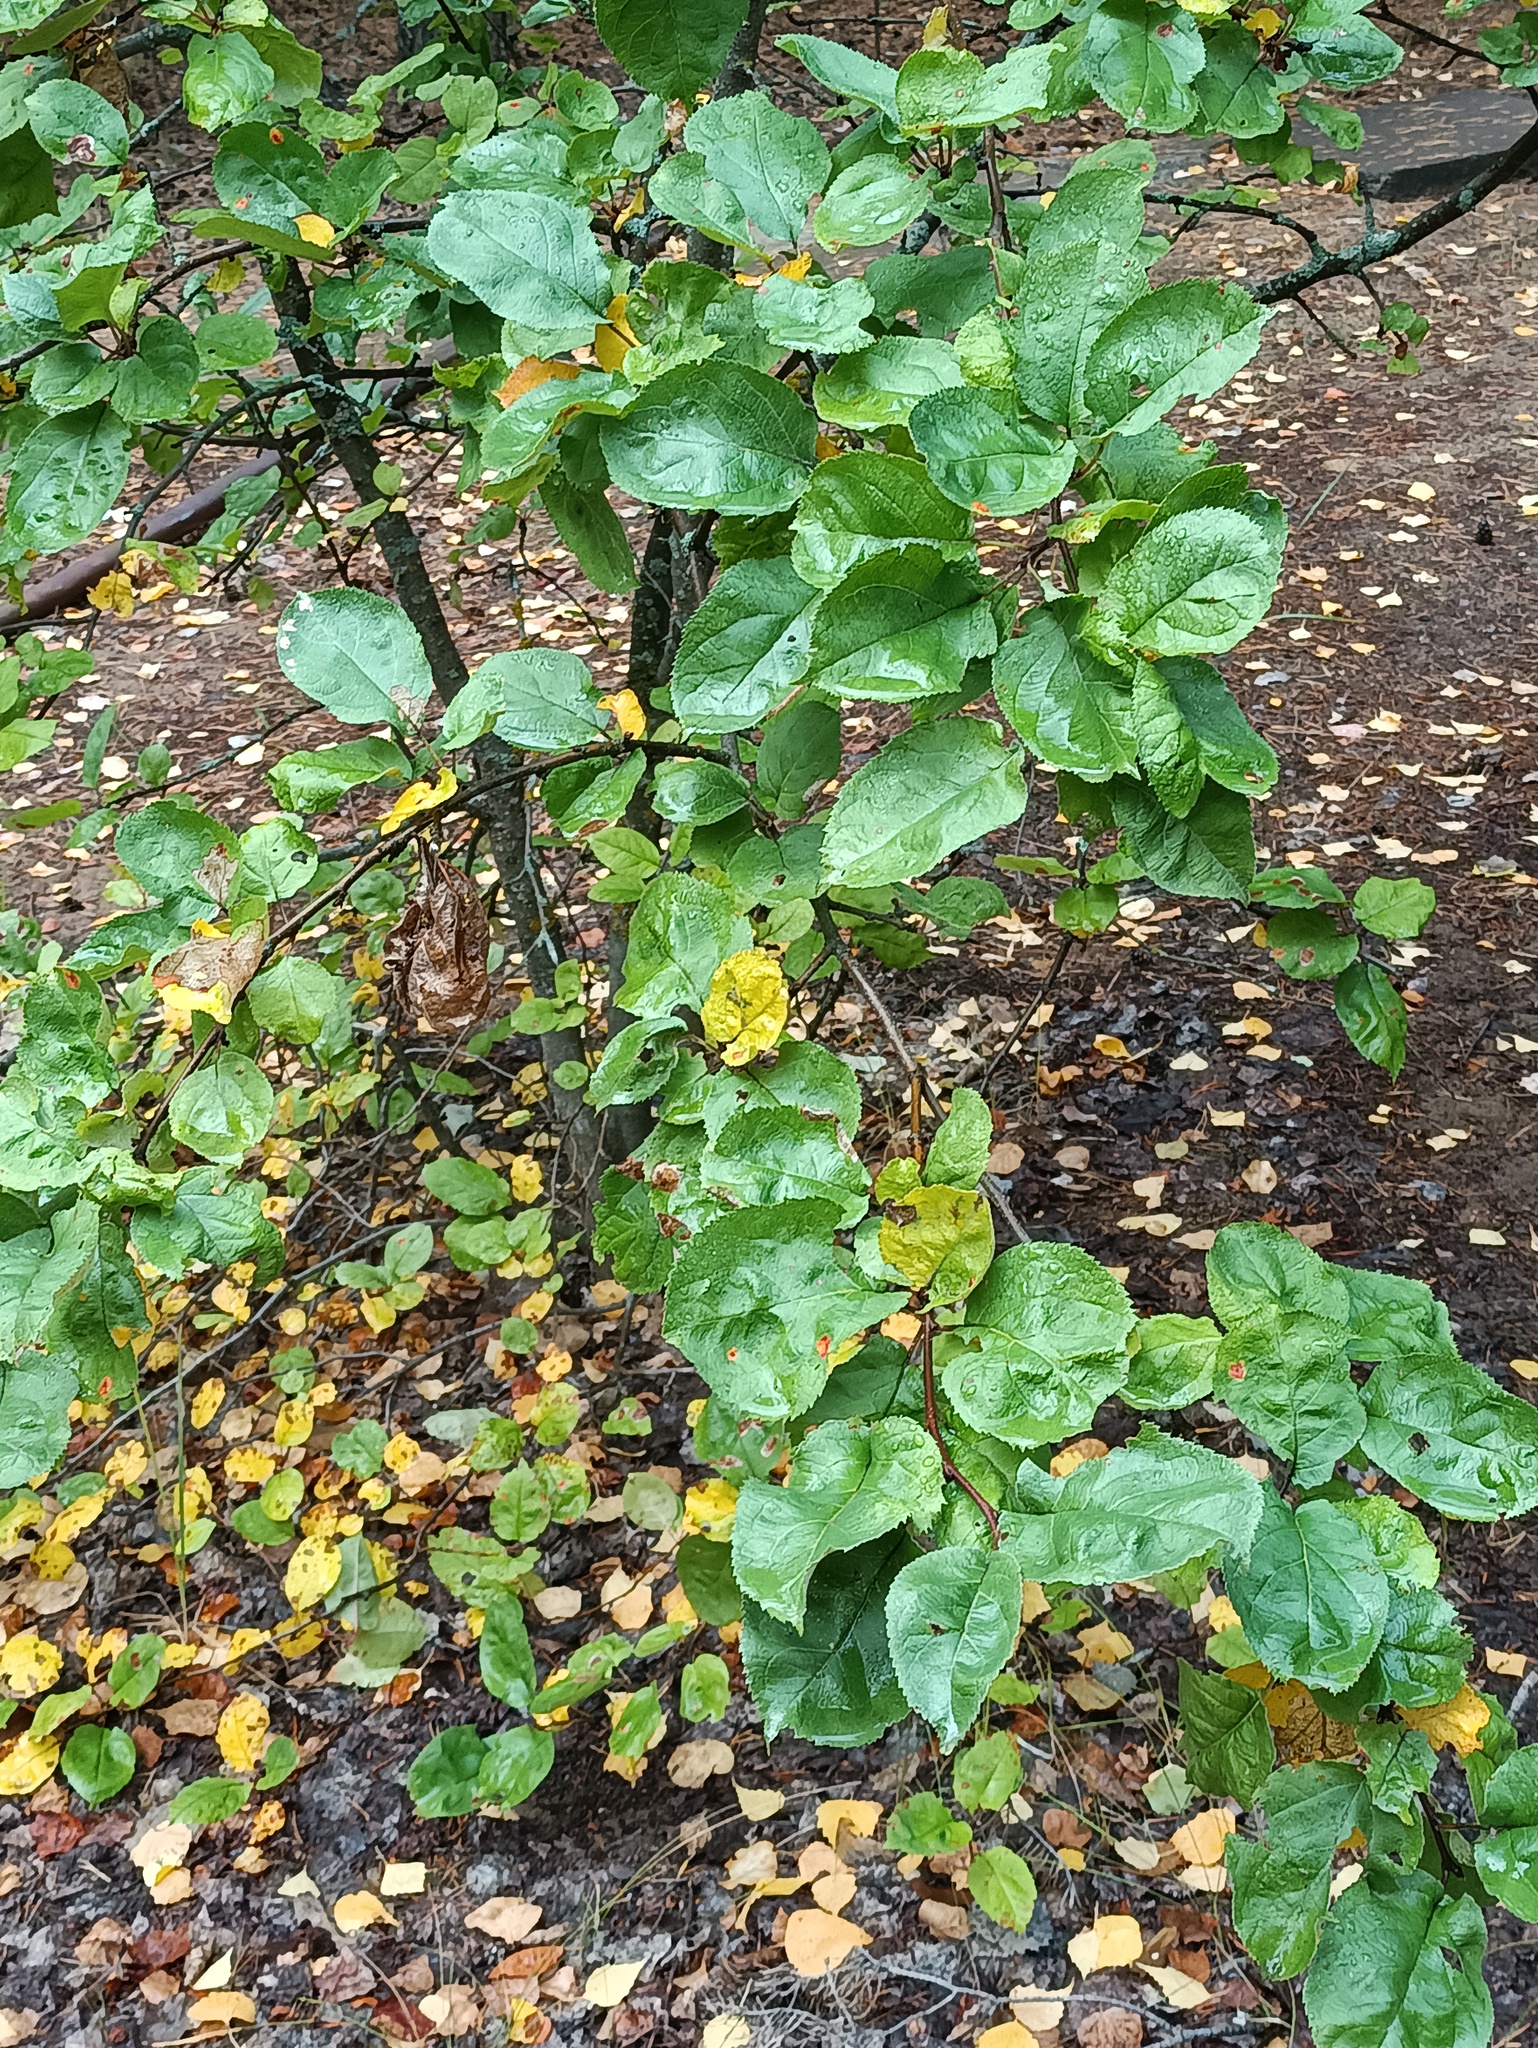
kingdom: Plantae
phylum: Tracheophyta
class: Magnoliopsida
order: Rosales
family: Rosaceae
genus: Malus
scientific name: Malus domestica
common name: Apple
